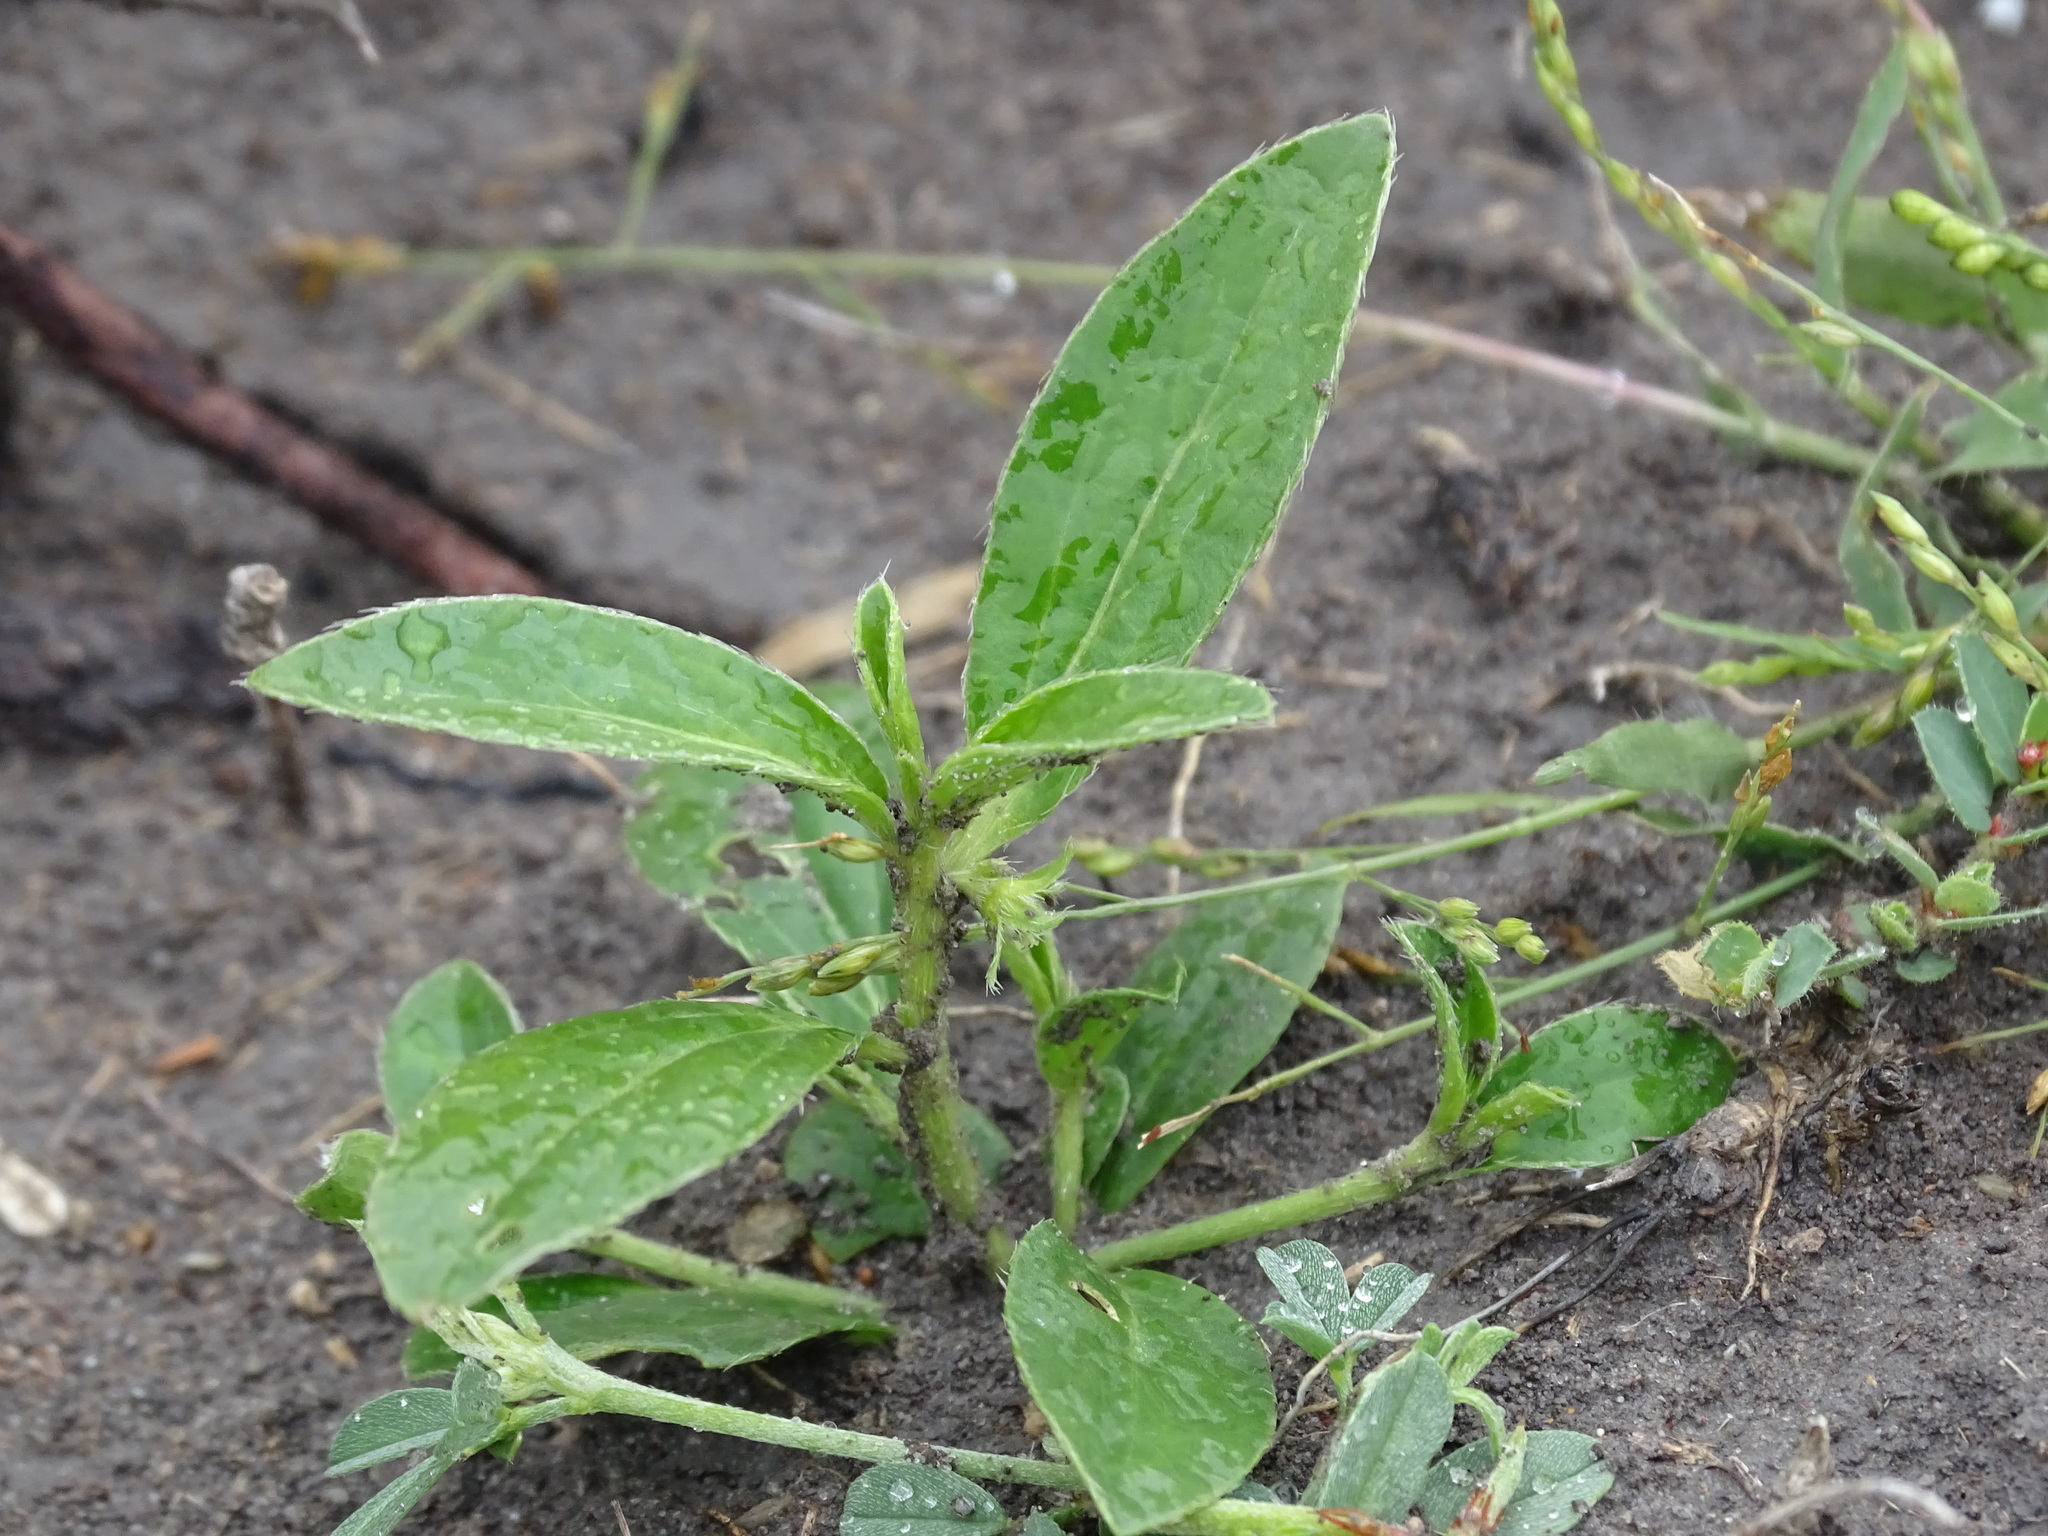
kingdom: Plantae
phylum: Tracheophyta
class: Magnoliopsida
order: Malpighiales
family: Euphorbiaceae
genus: Ditaxis
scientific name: Ditaxis humilis
